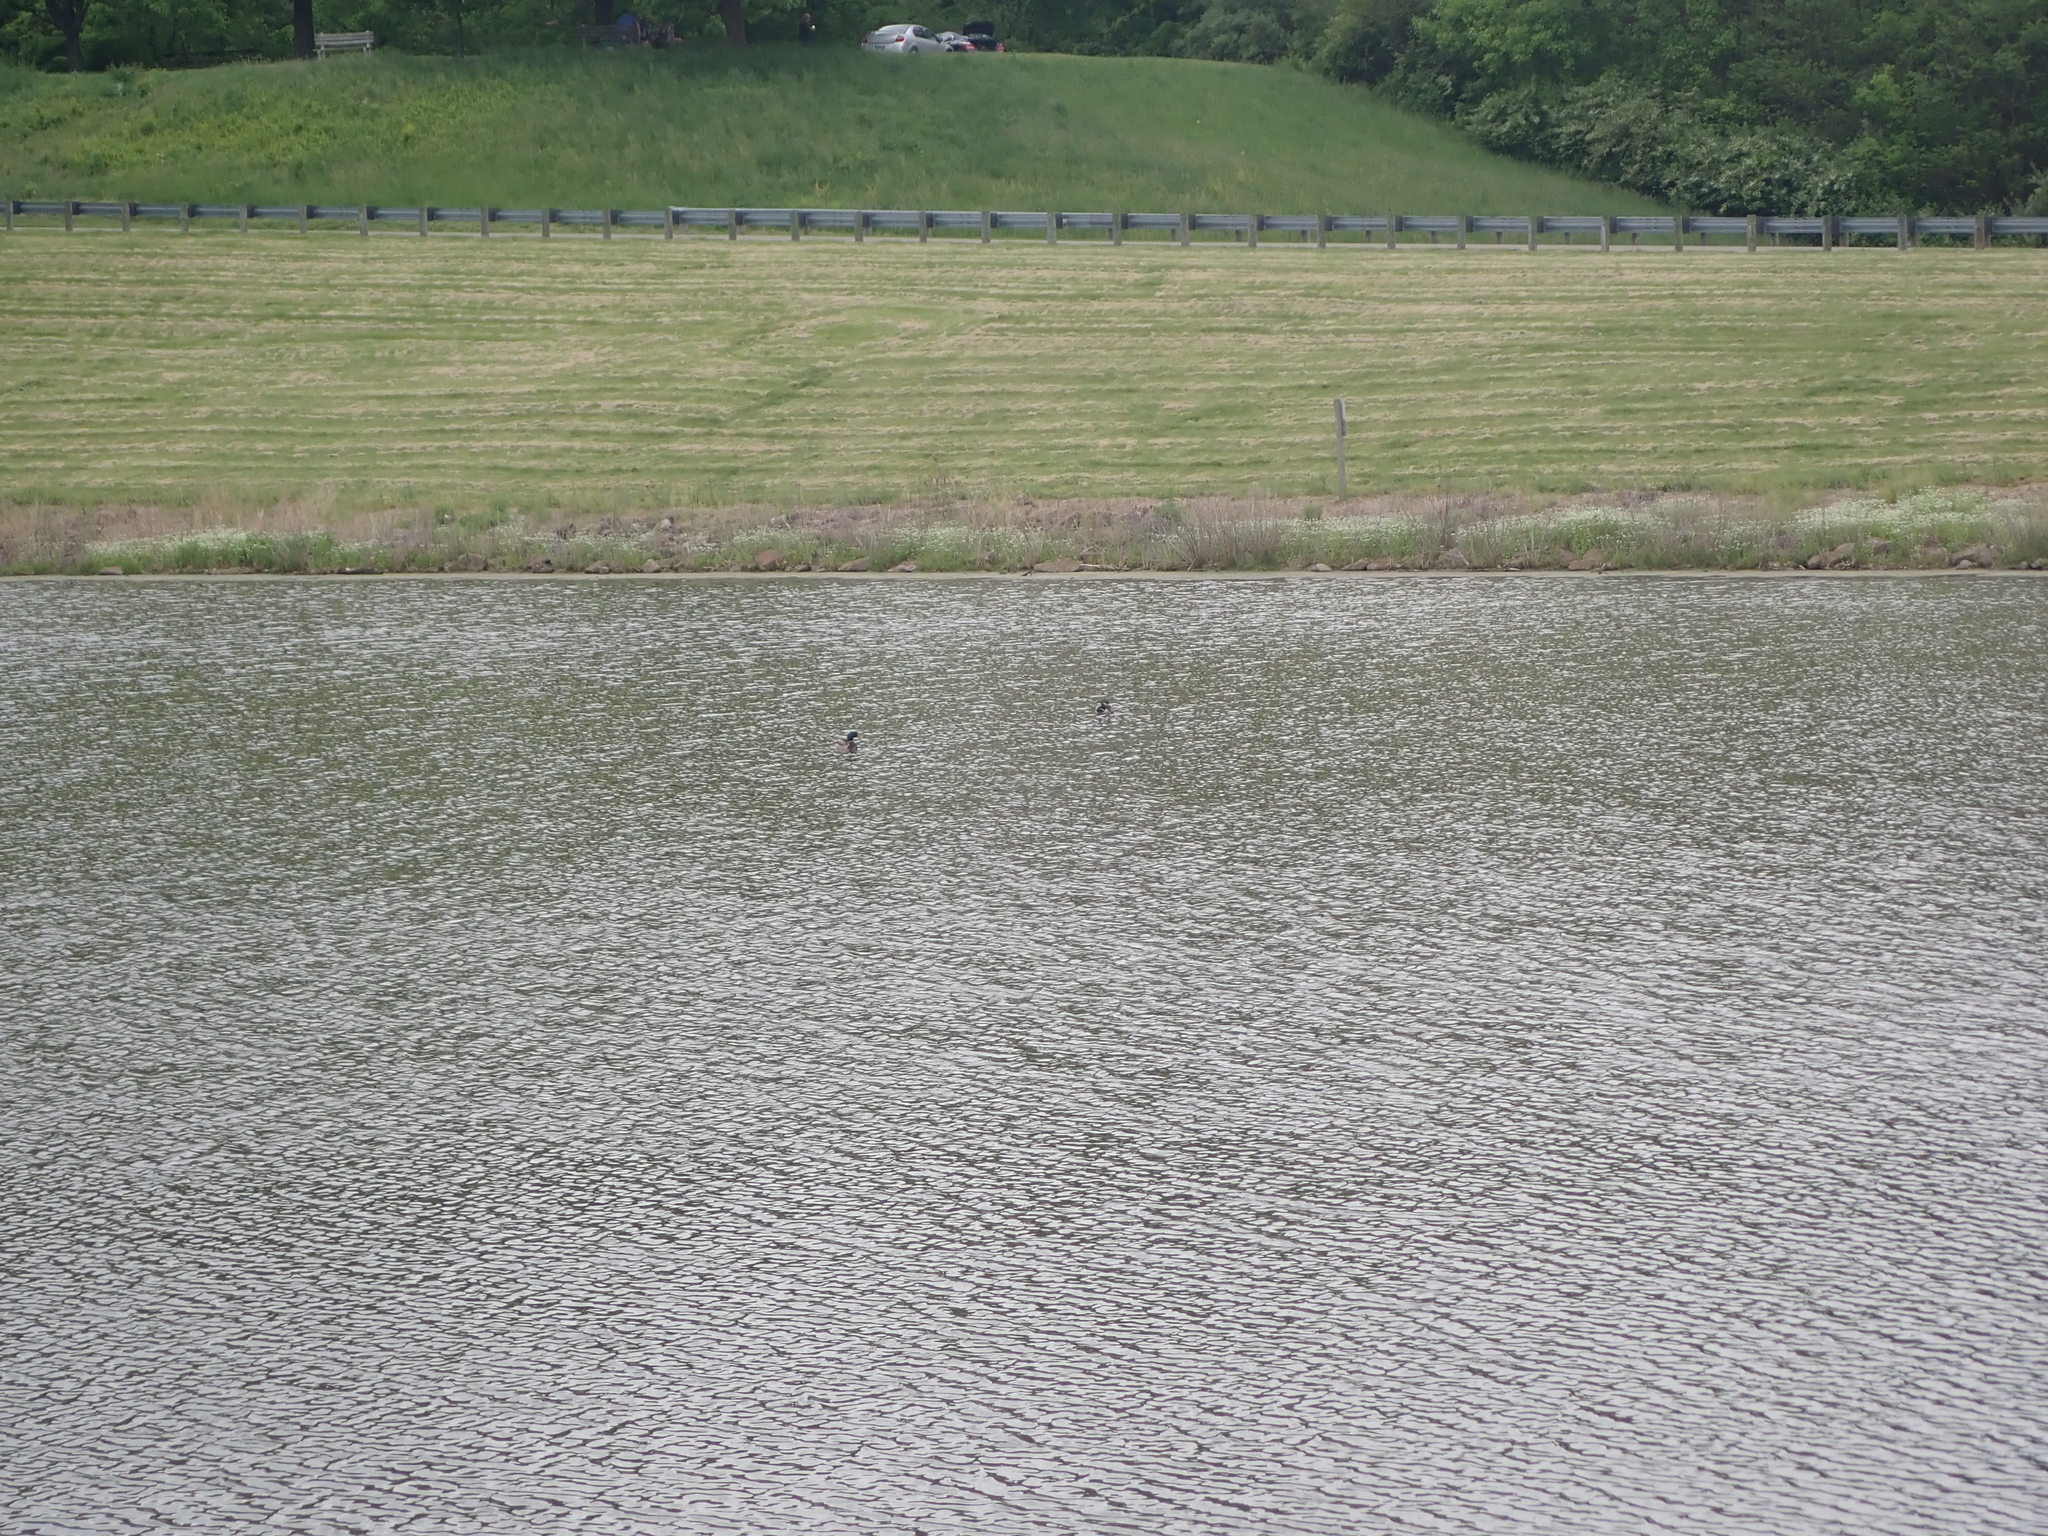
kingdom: Animalia
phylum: Chordata
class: Aves
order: Anseriformes
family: Anatidae
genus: Anas
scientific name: Anas platyrhynchos
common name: Mallard
